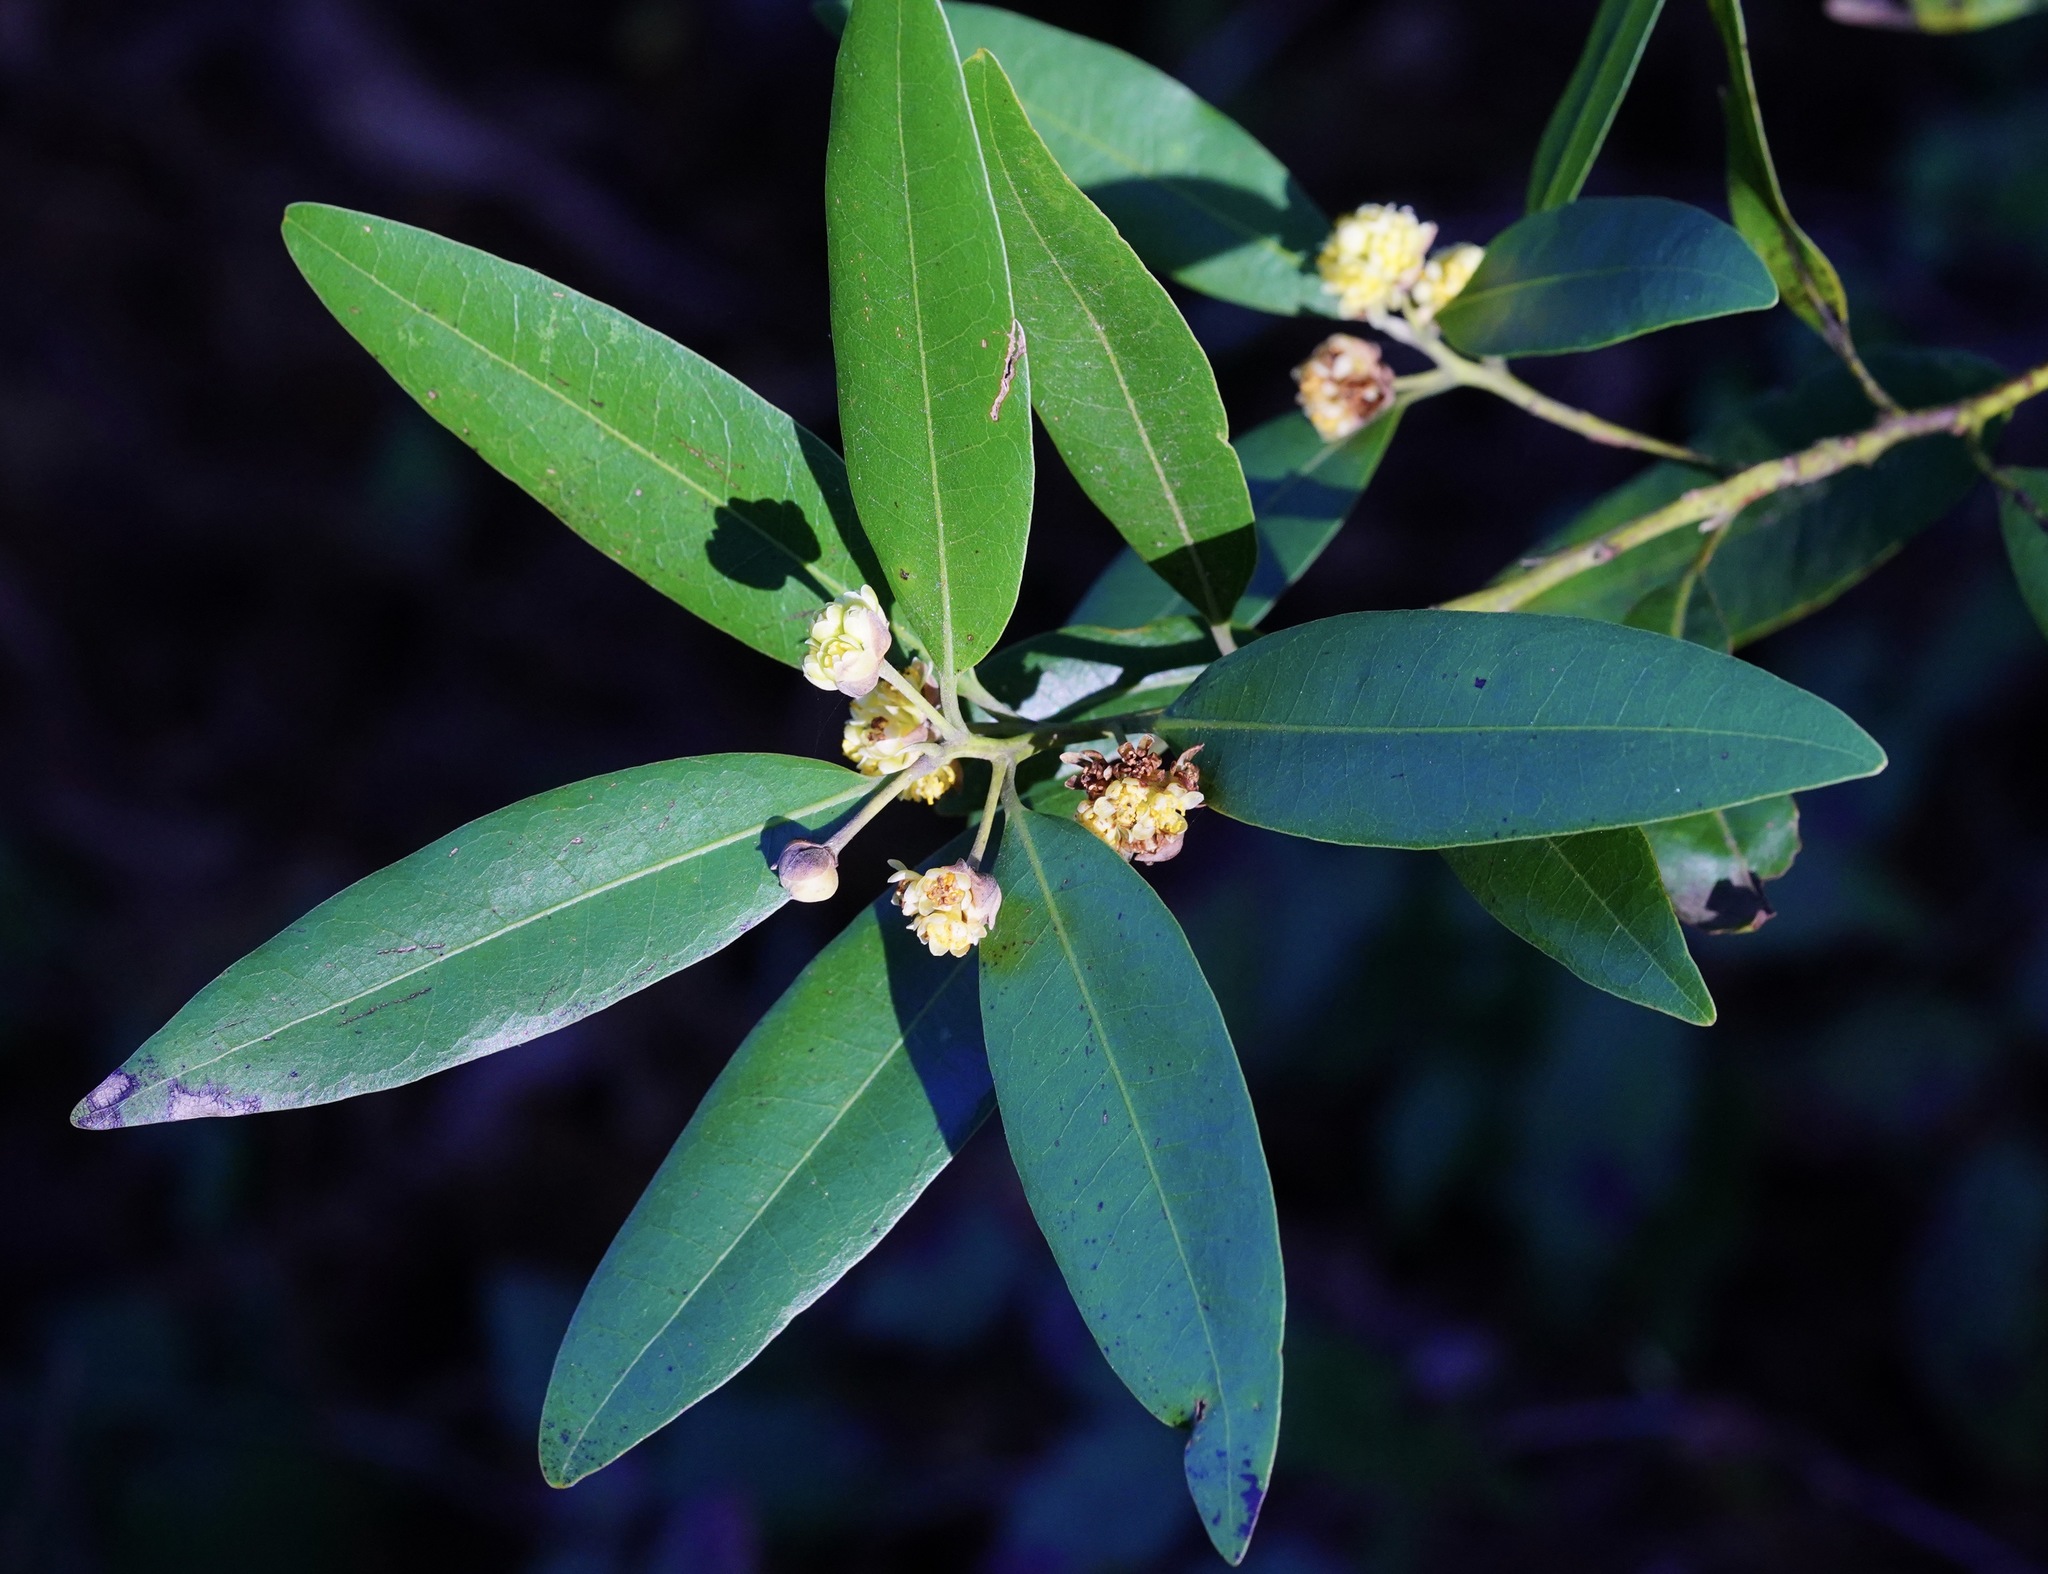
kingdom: Plantae
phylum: Tracheophyta
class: Magnoliopsida
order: Laurales
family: Lauraceae
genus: Umbellularia
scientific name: Umbellularia californica
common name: California bay
